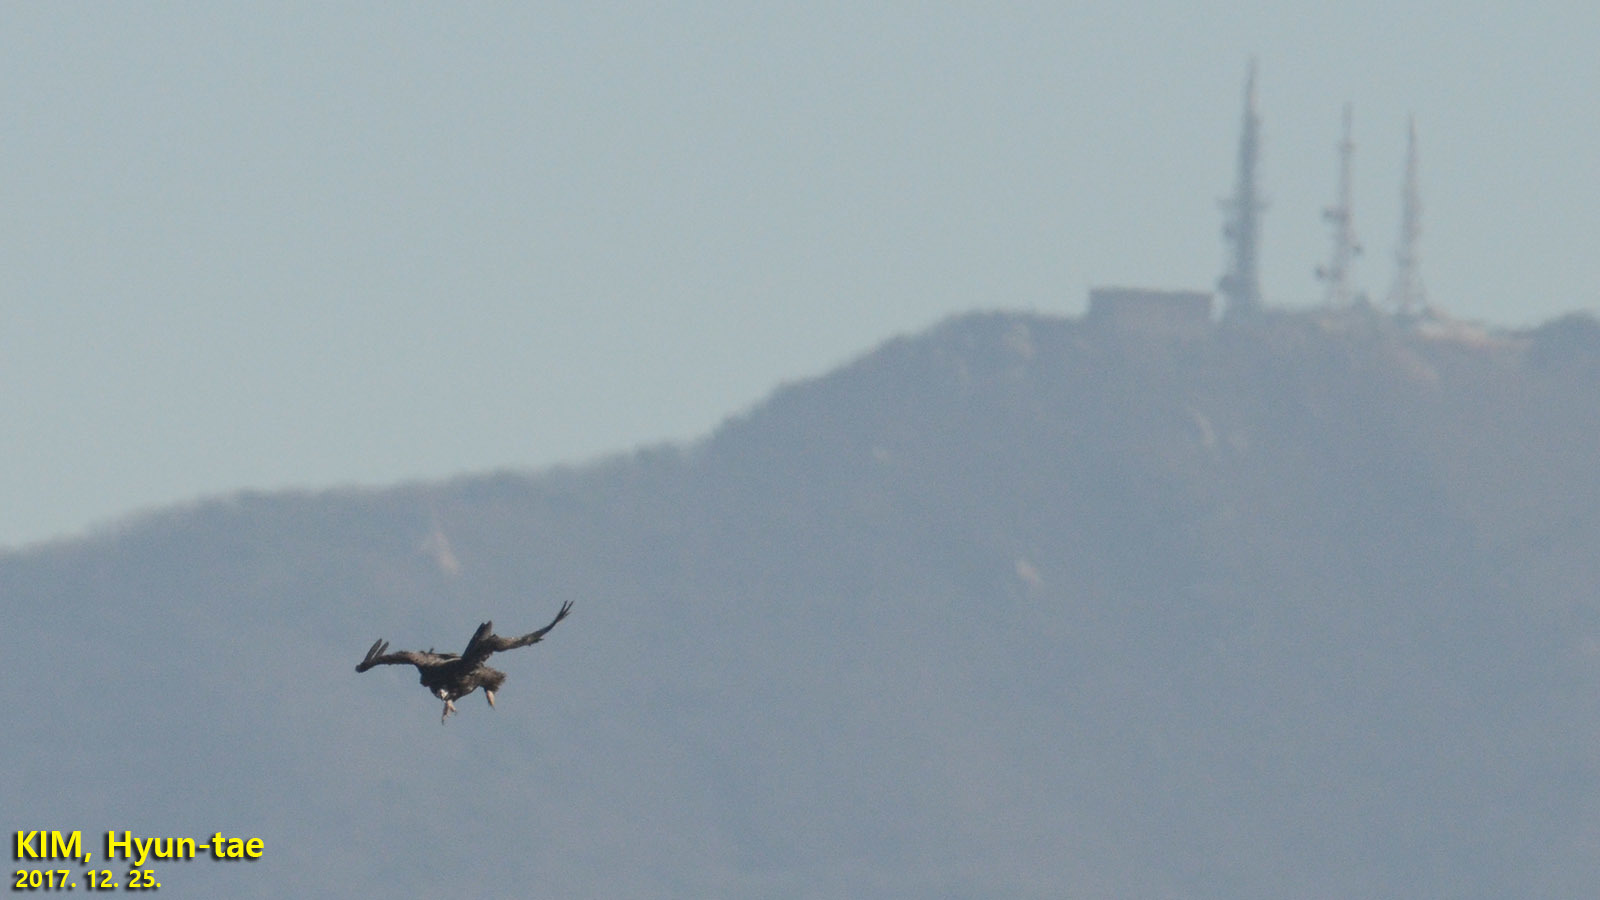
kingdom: Animalia
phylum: Chordata
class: Aves
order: Accipitriformes
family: Accipitridae
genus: Aegypius
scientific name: Aegypius monachus
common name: Cinereous vulture
